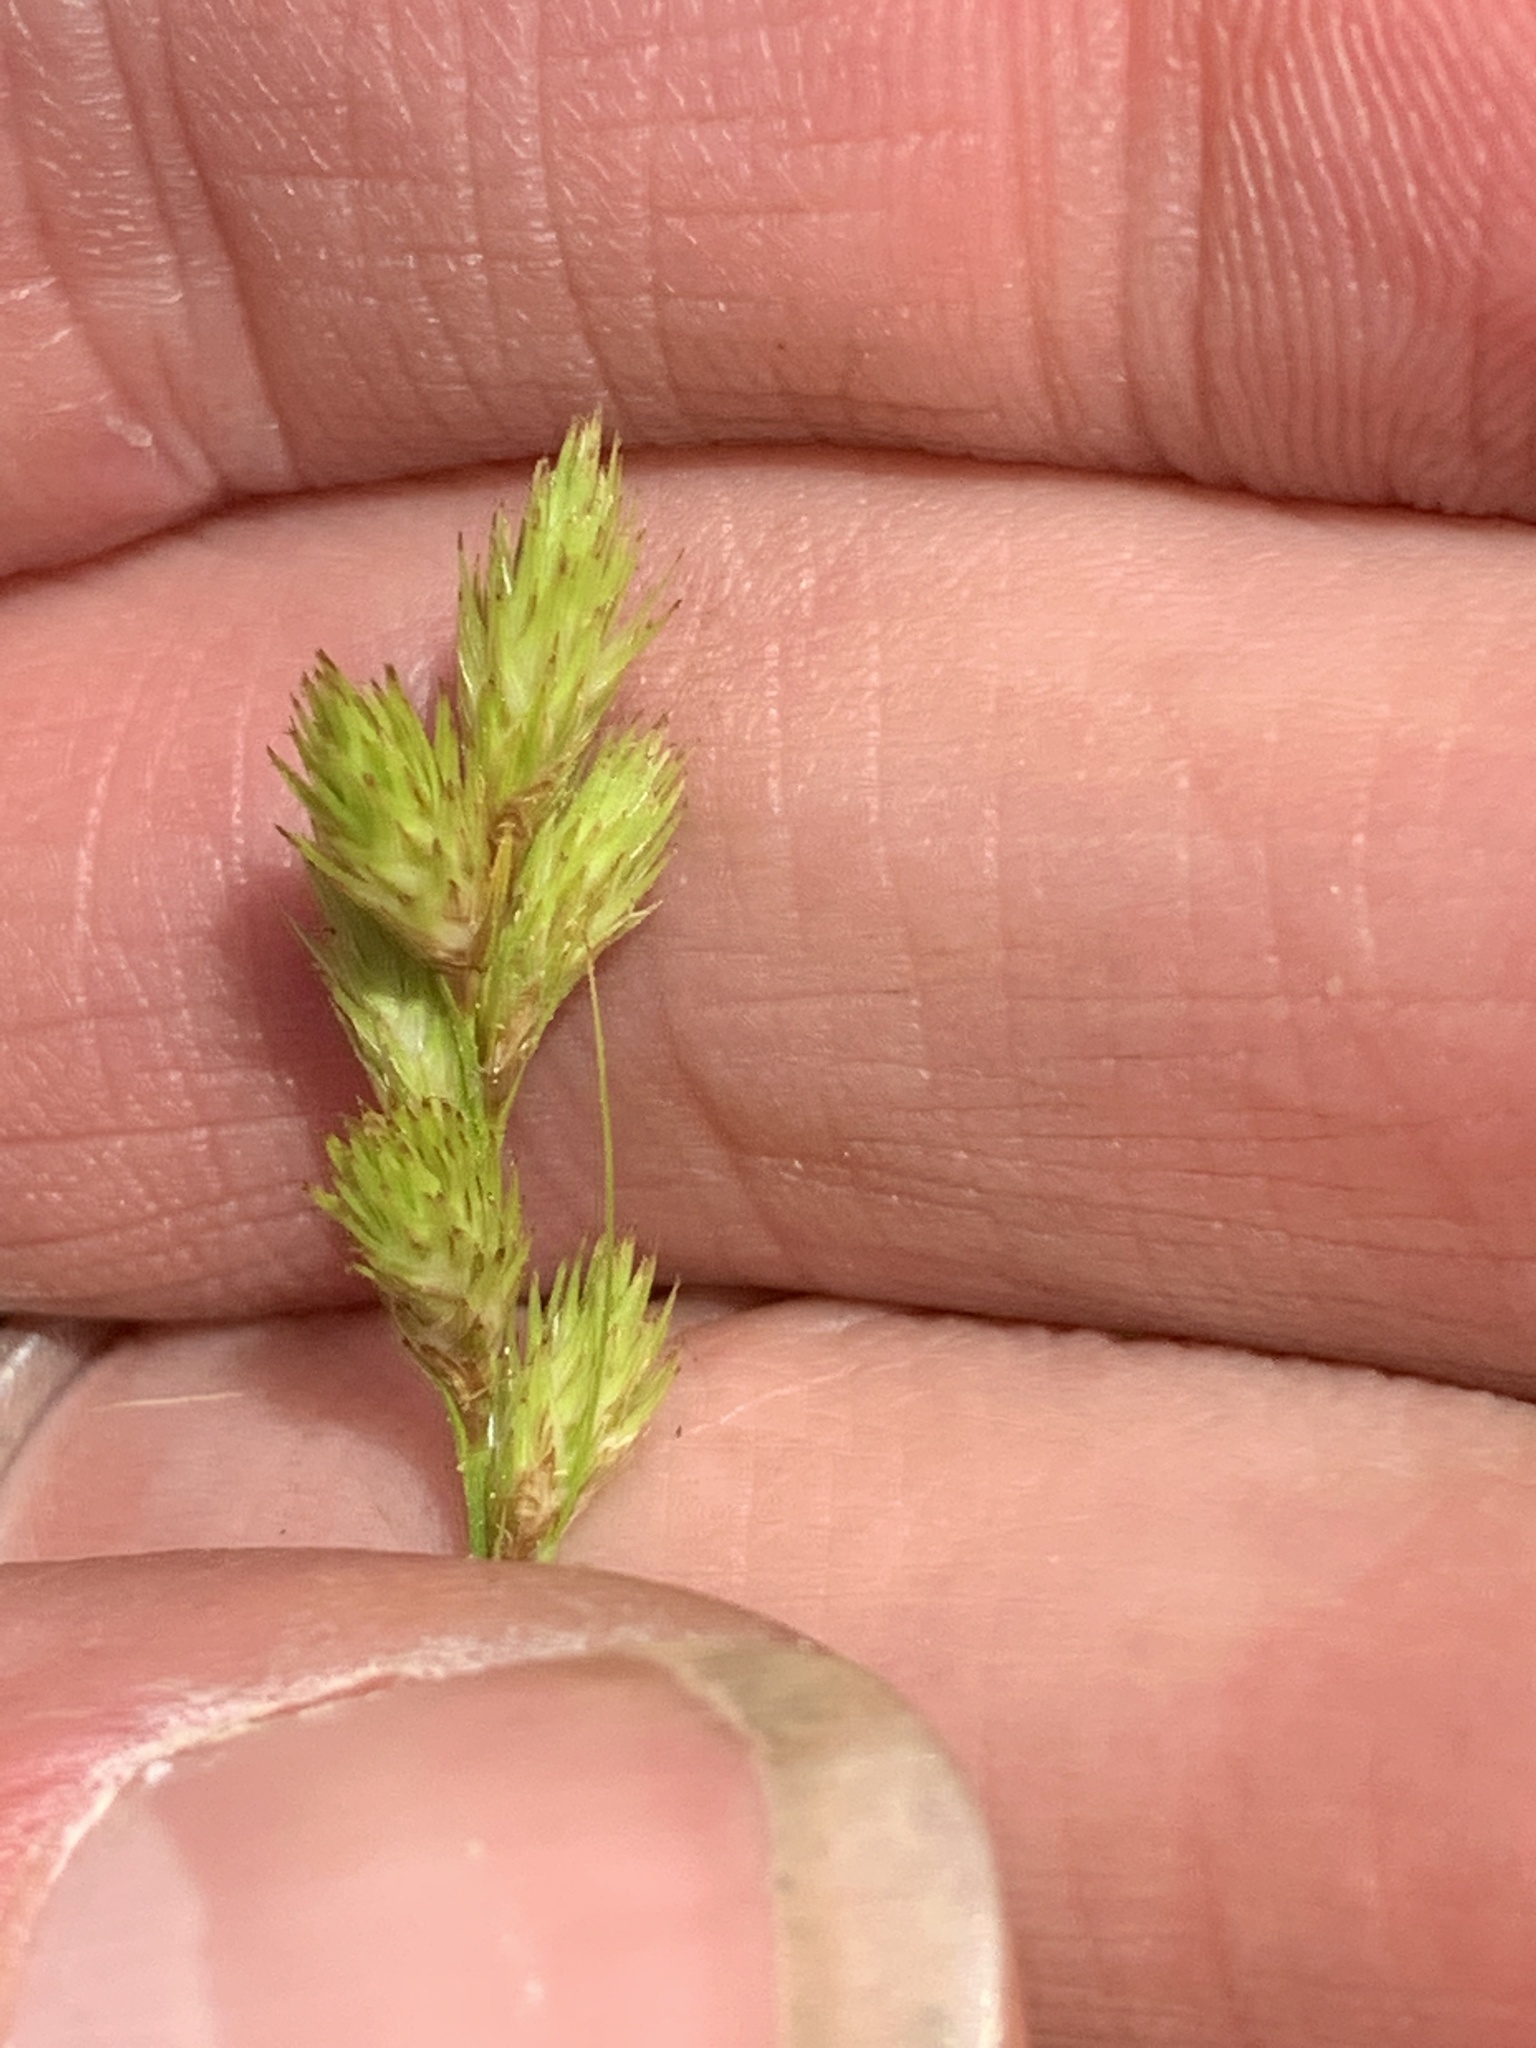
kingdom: Plantae
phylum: Tracheophyta
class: Liliopsida
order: Poales
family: Cyperaceae
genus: Carex
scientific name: Carex scoparia
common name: Broom sedge
